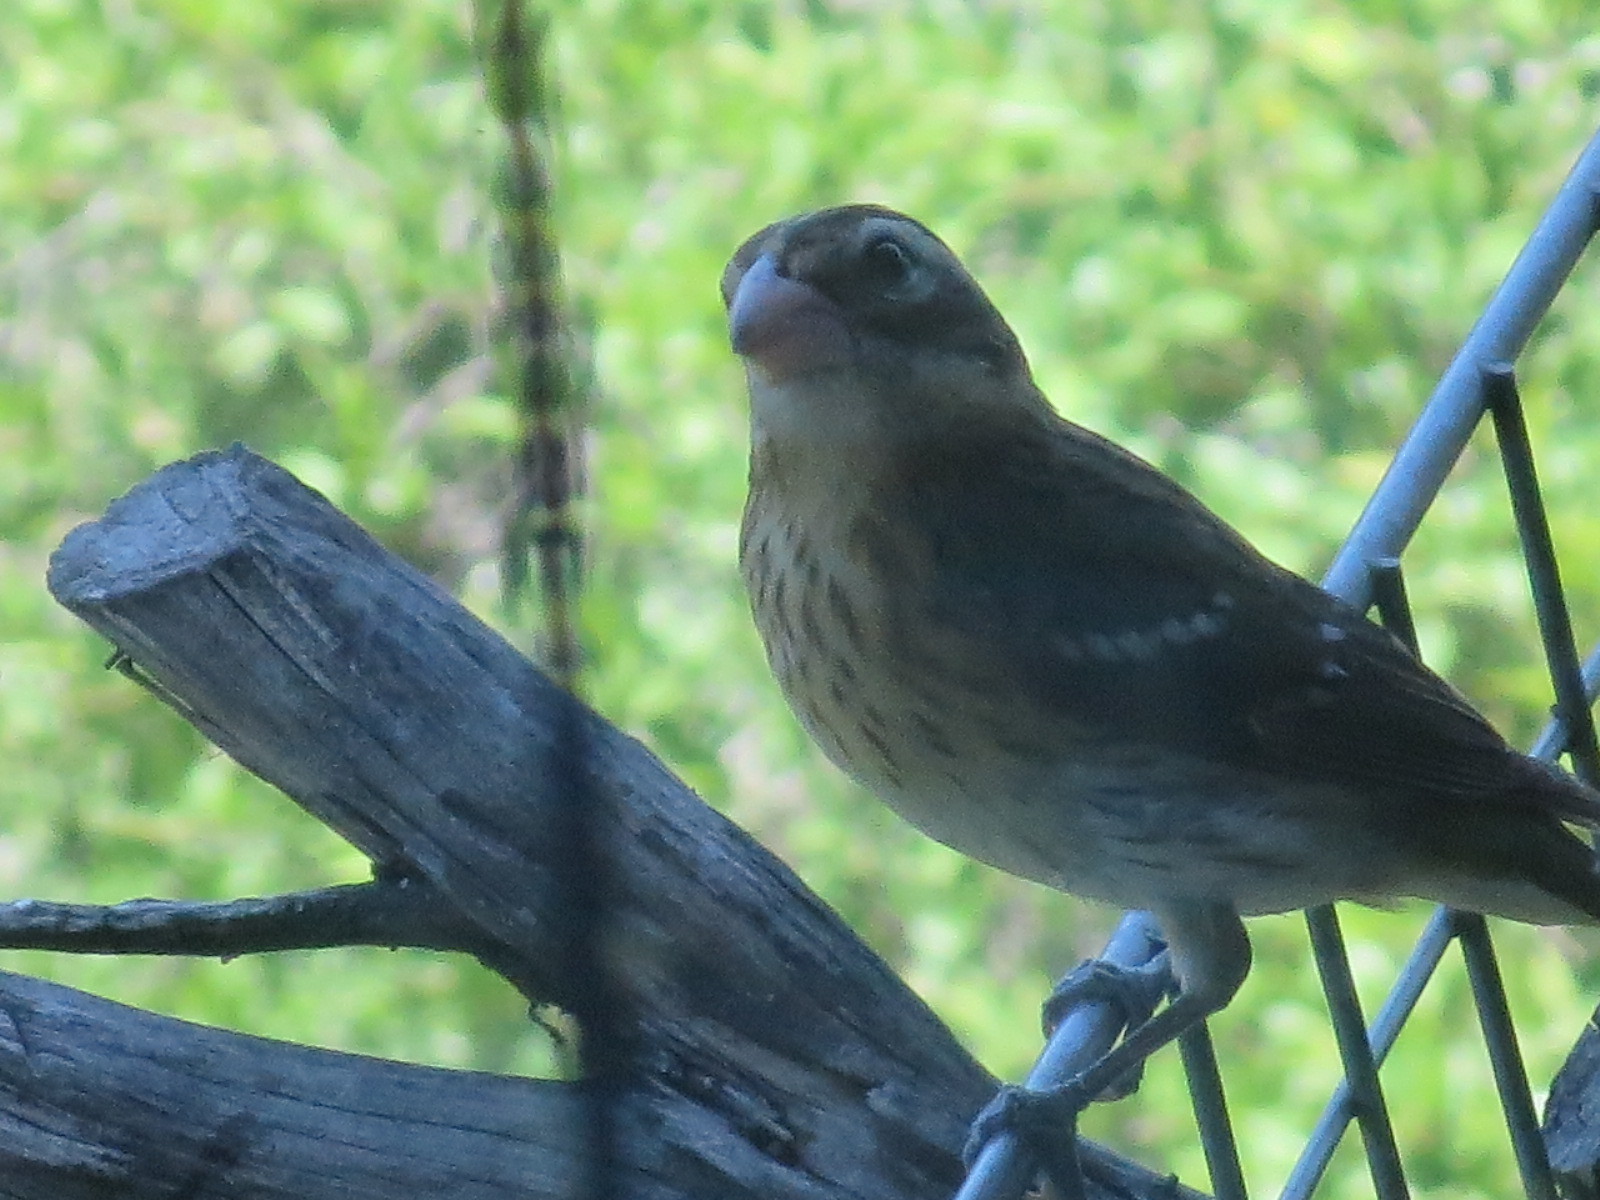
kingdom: Animalia
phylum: Chordata
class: Aves
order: Passeriformes
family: Cardinalidae
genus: Pheucticus
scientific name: Pheucticus ludovicianus
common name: Rose-breasted grosbeak
